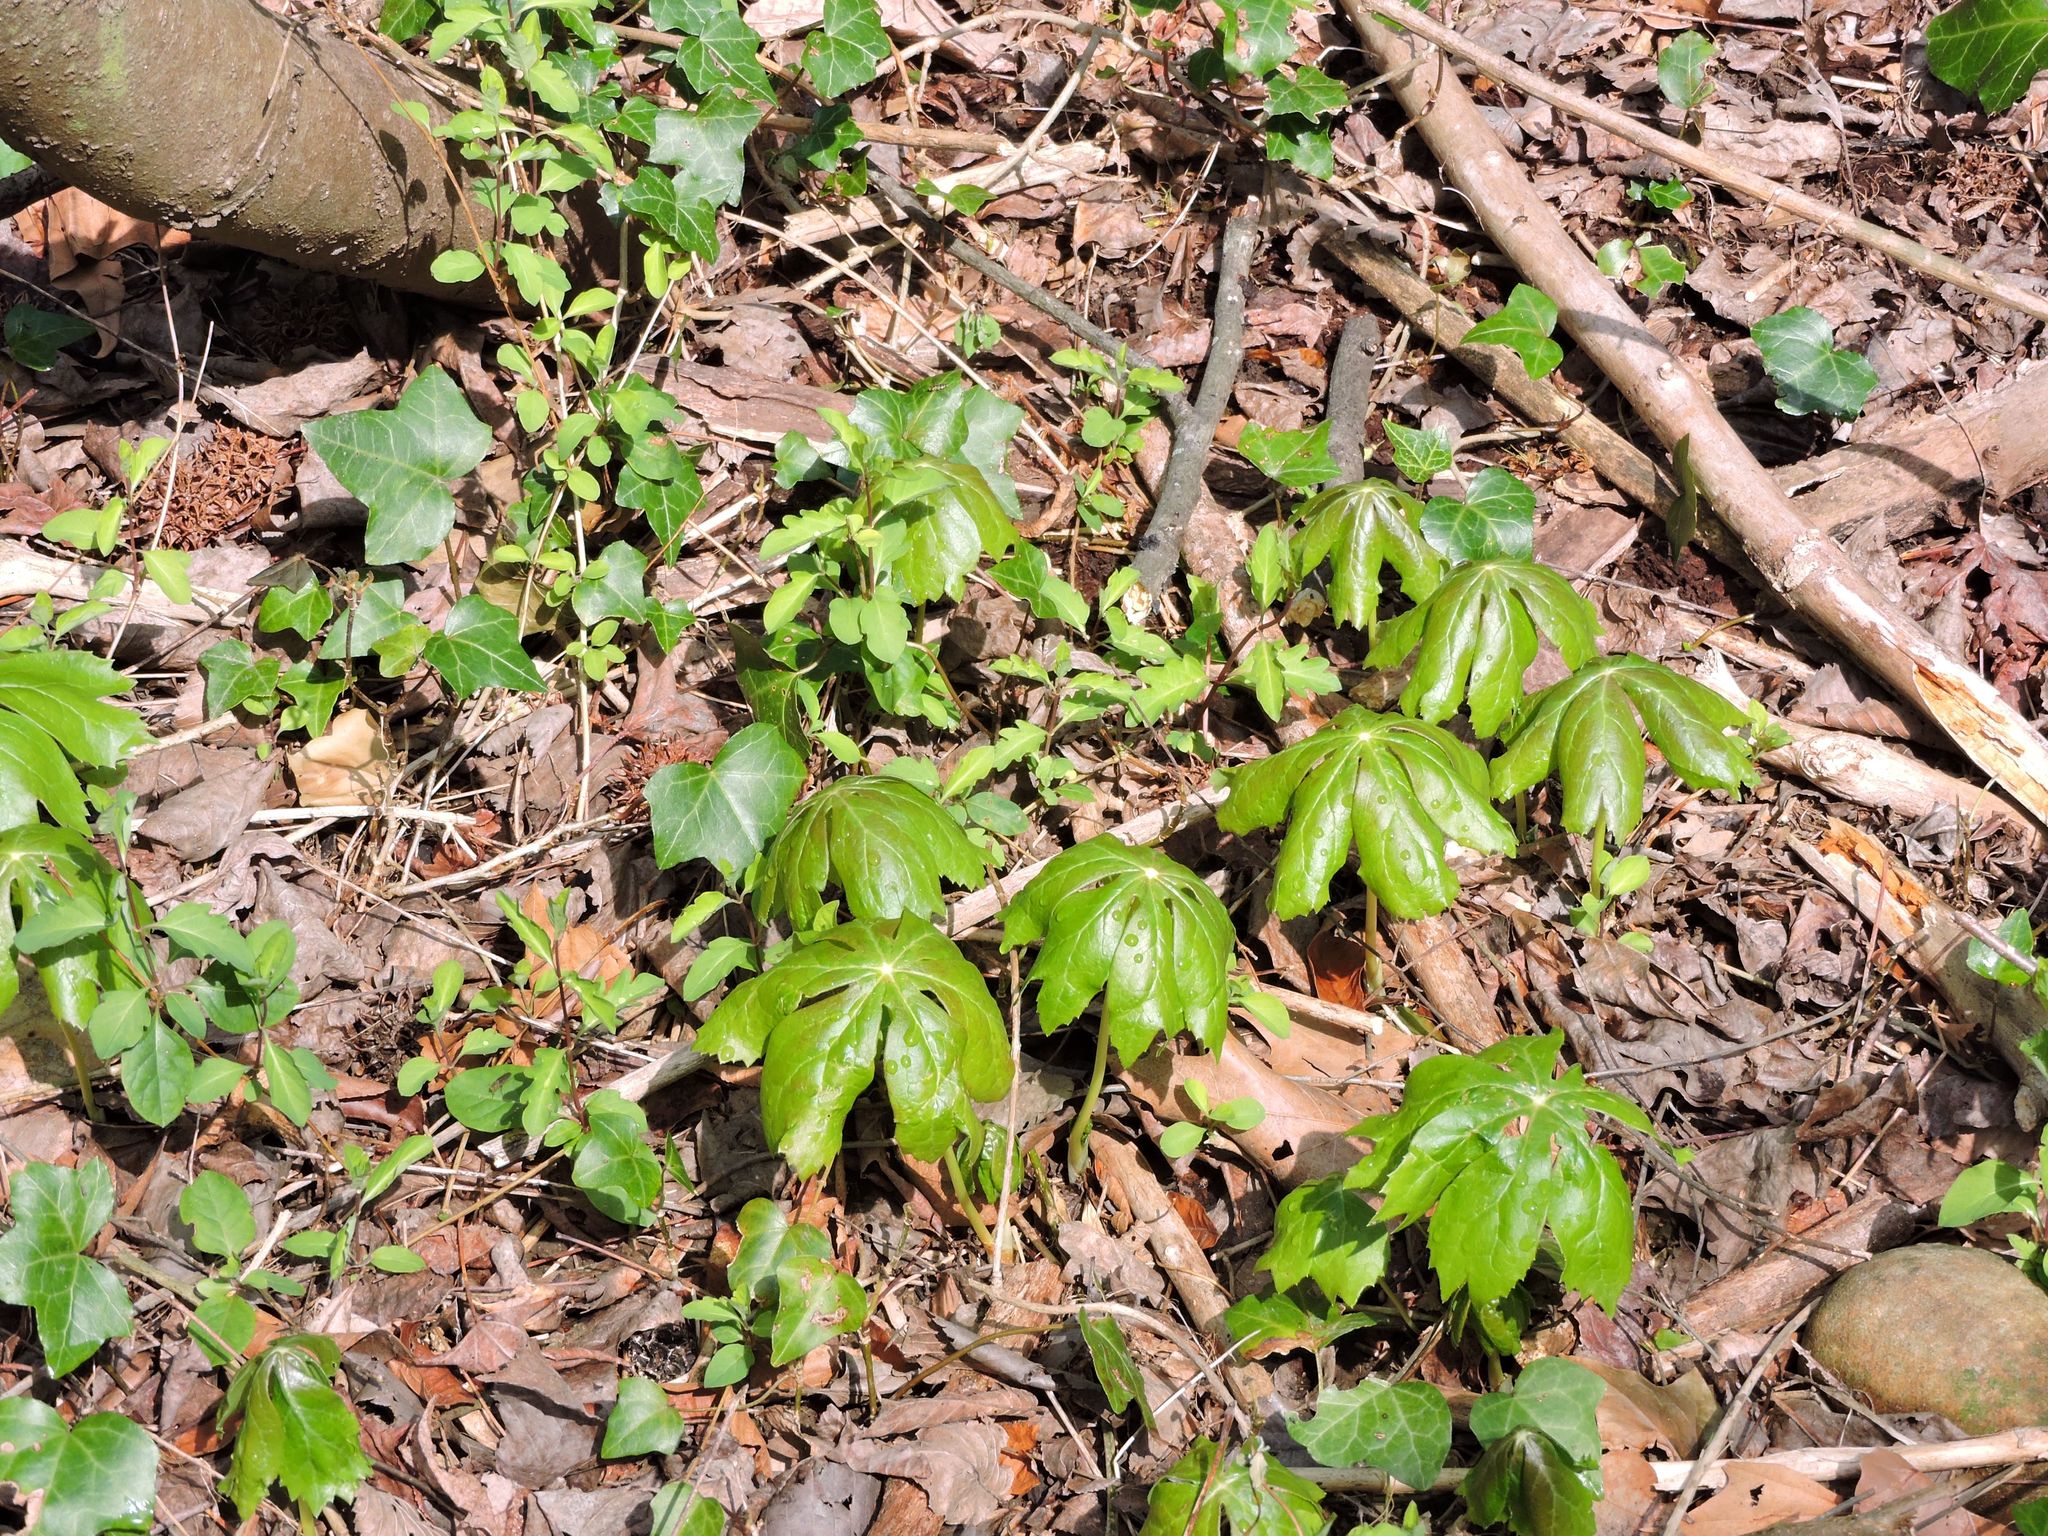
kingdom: Plantae
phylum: Tracheophyta
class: Magnoliopsida
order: Ranunculales
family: Berberidaceae
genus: Podophyllum
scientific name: Podophyllum peltatum
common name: Wild mandrake
